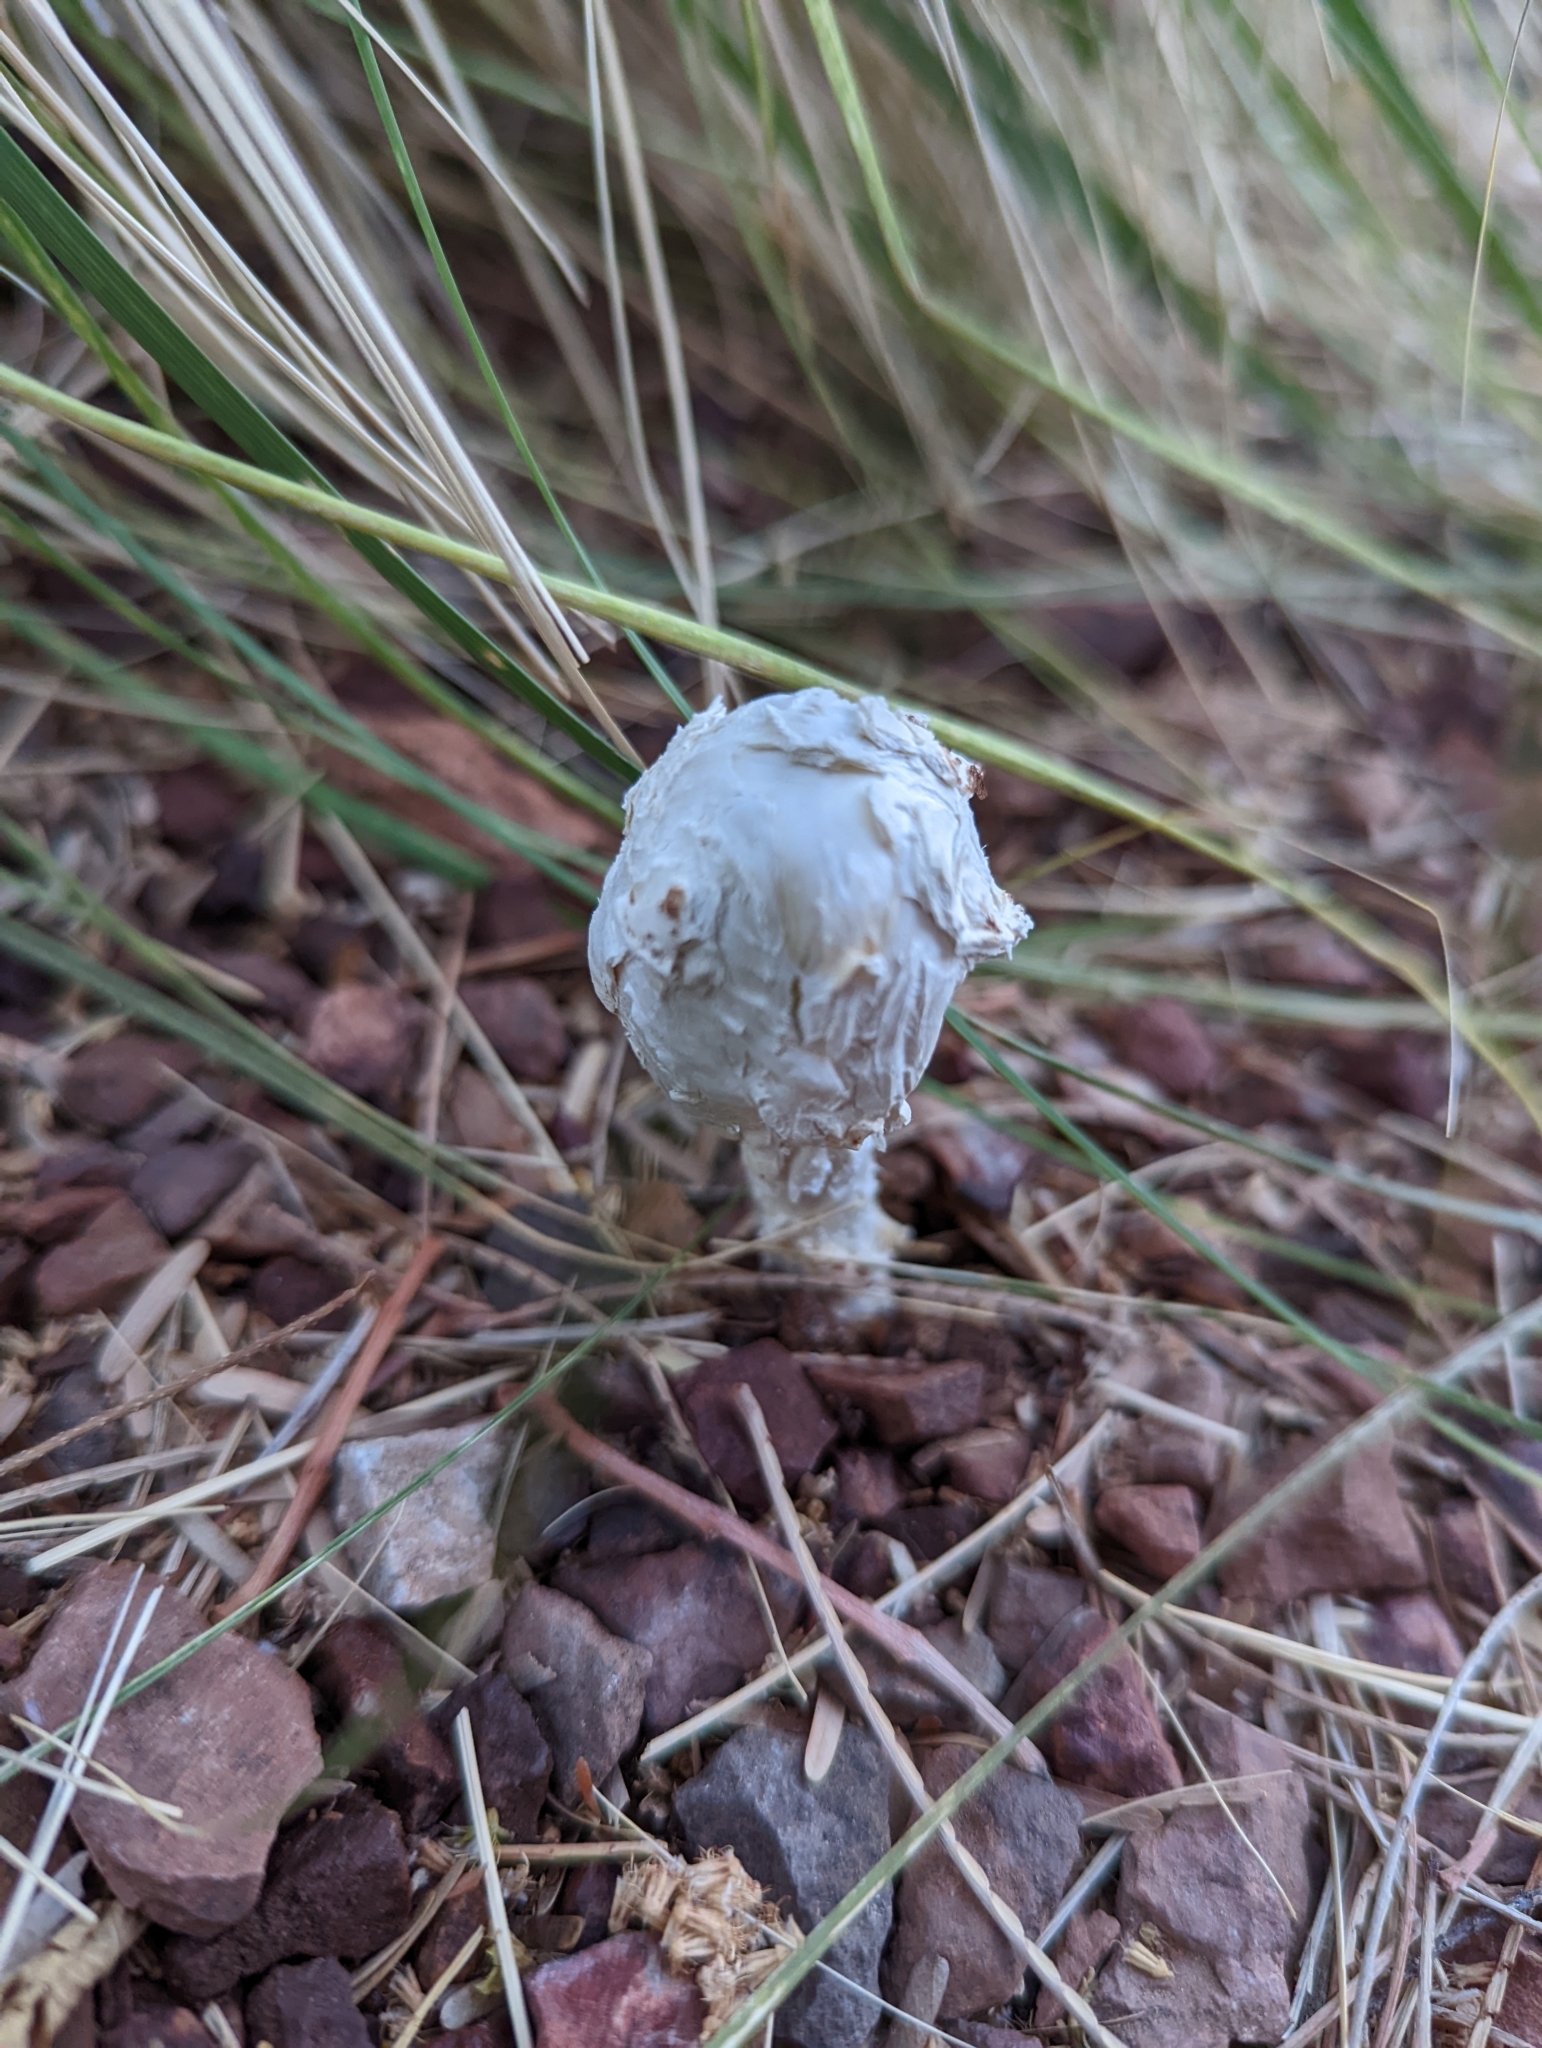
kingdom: Fungi
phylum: Basidiomycota
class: Agaricomycetes
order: Agaricales
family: Agaricaceae
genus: Podaxis
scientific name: Podaxis pistillaris
